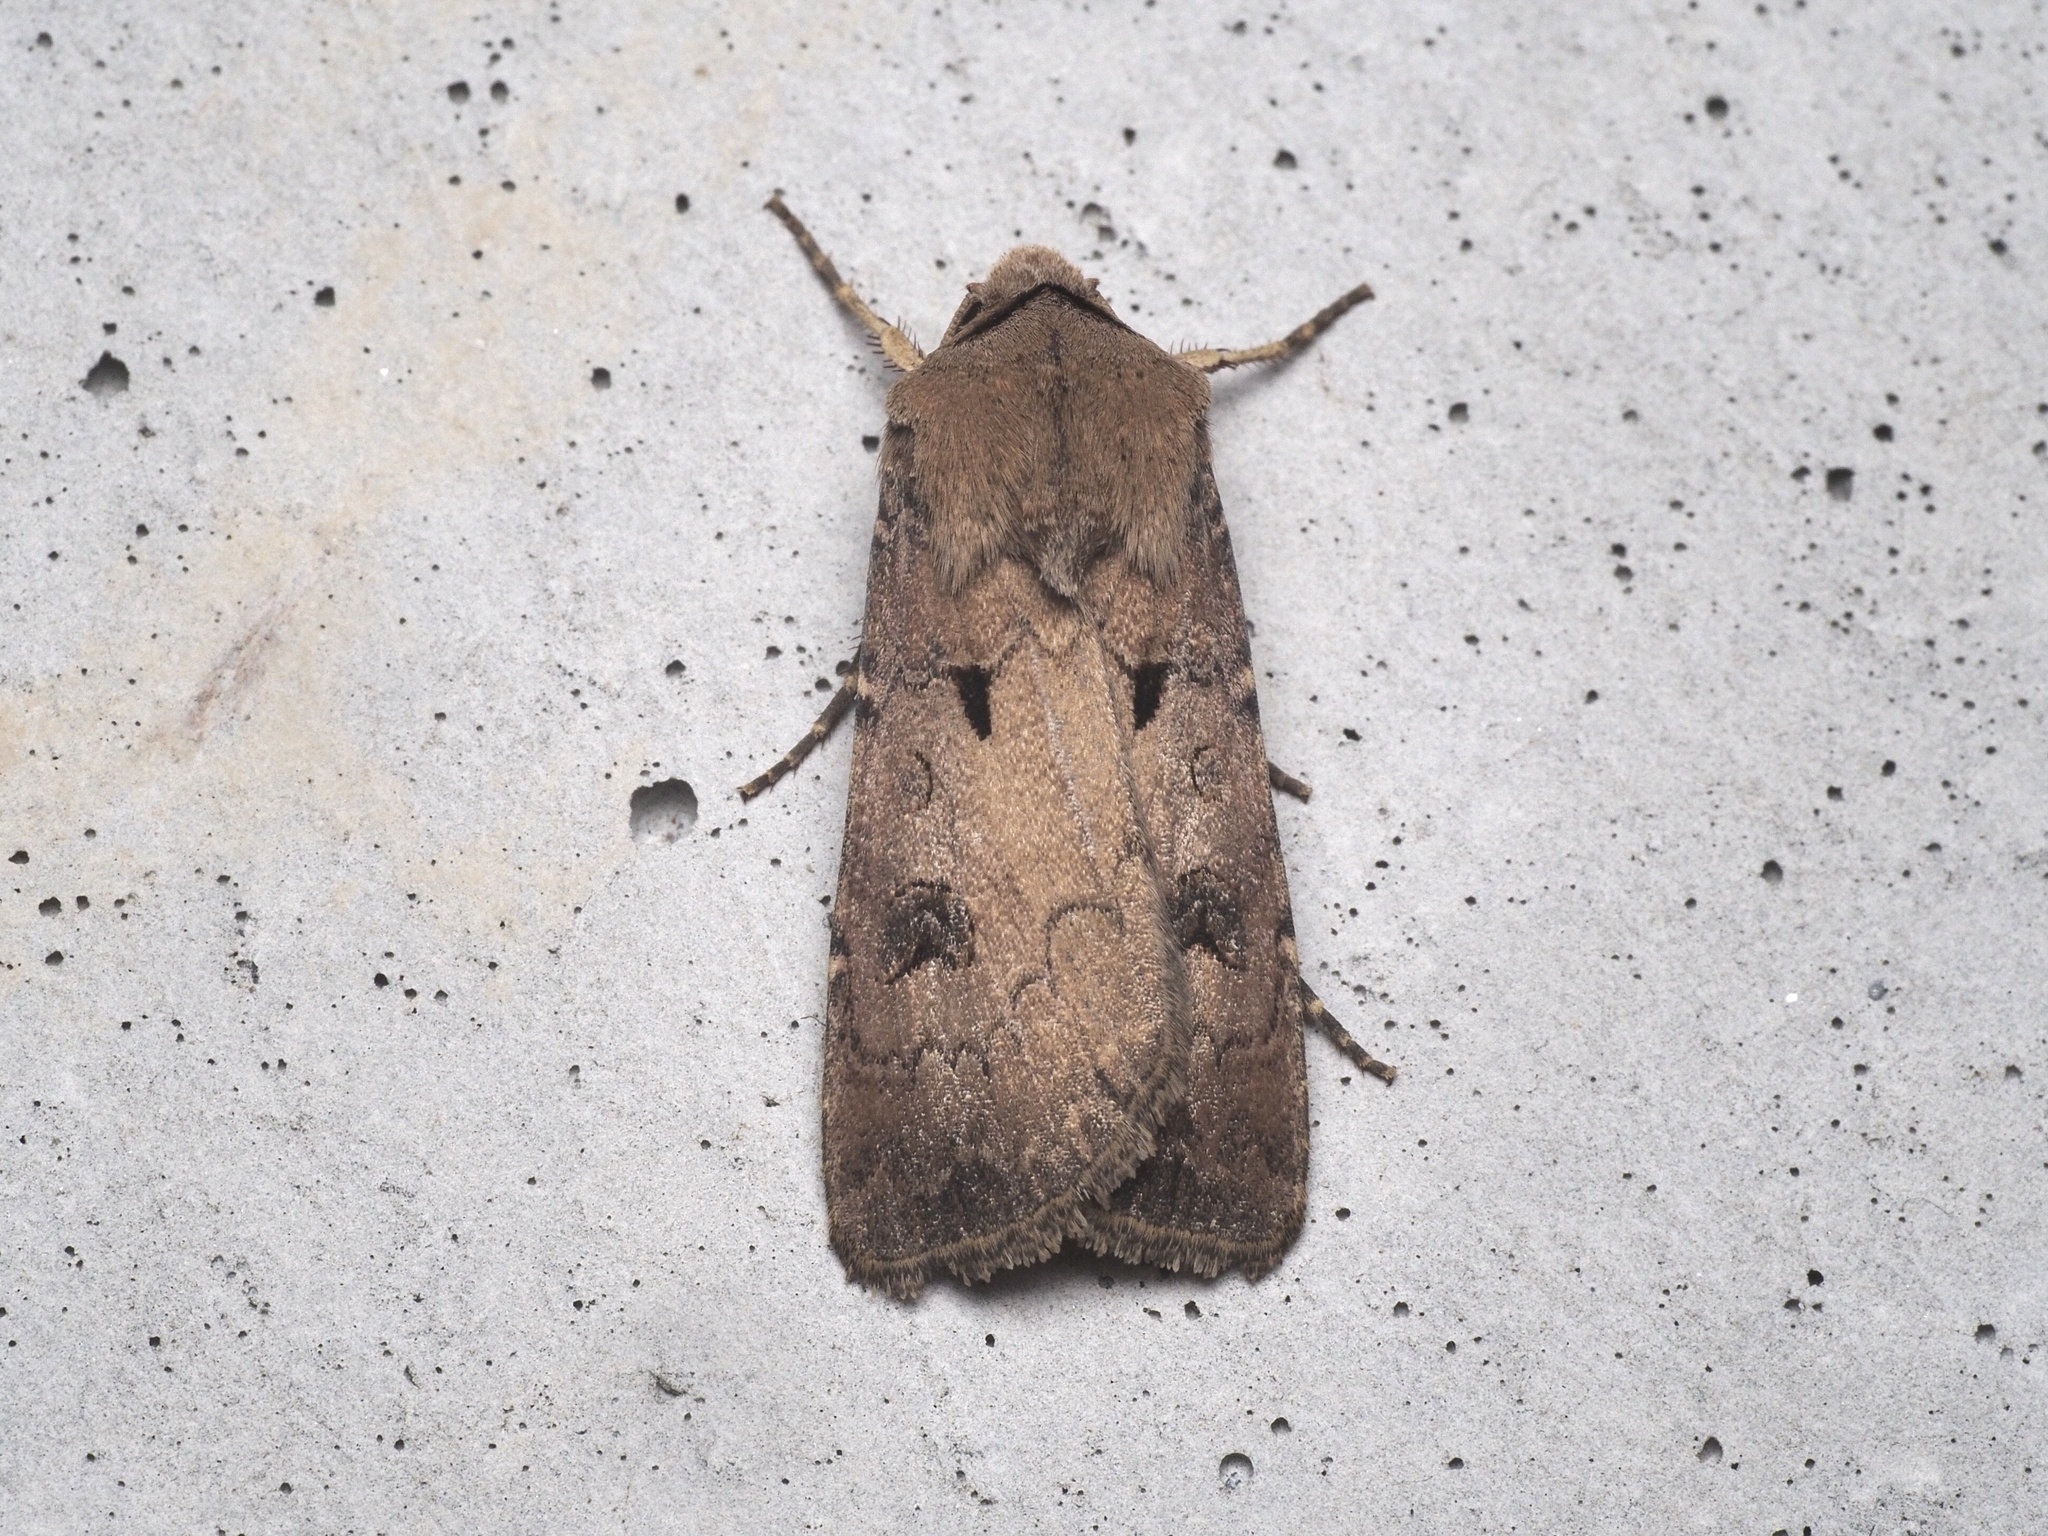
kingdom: Animalia
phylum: Arthropoda
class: Insecta
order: Lepidoptera
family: Noctuidae
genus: Agrotis
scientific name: Agrotis exclamationis
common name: Heart and dart
